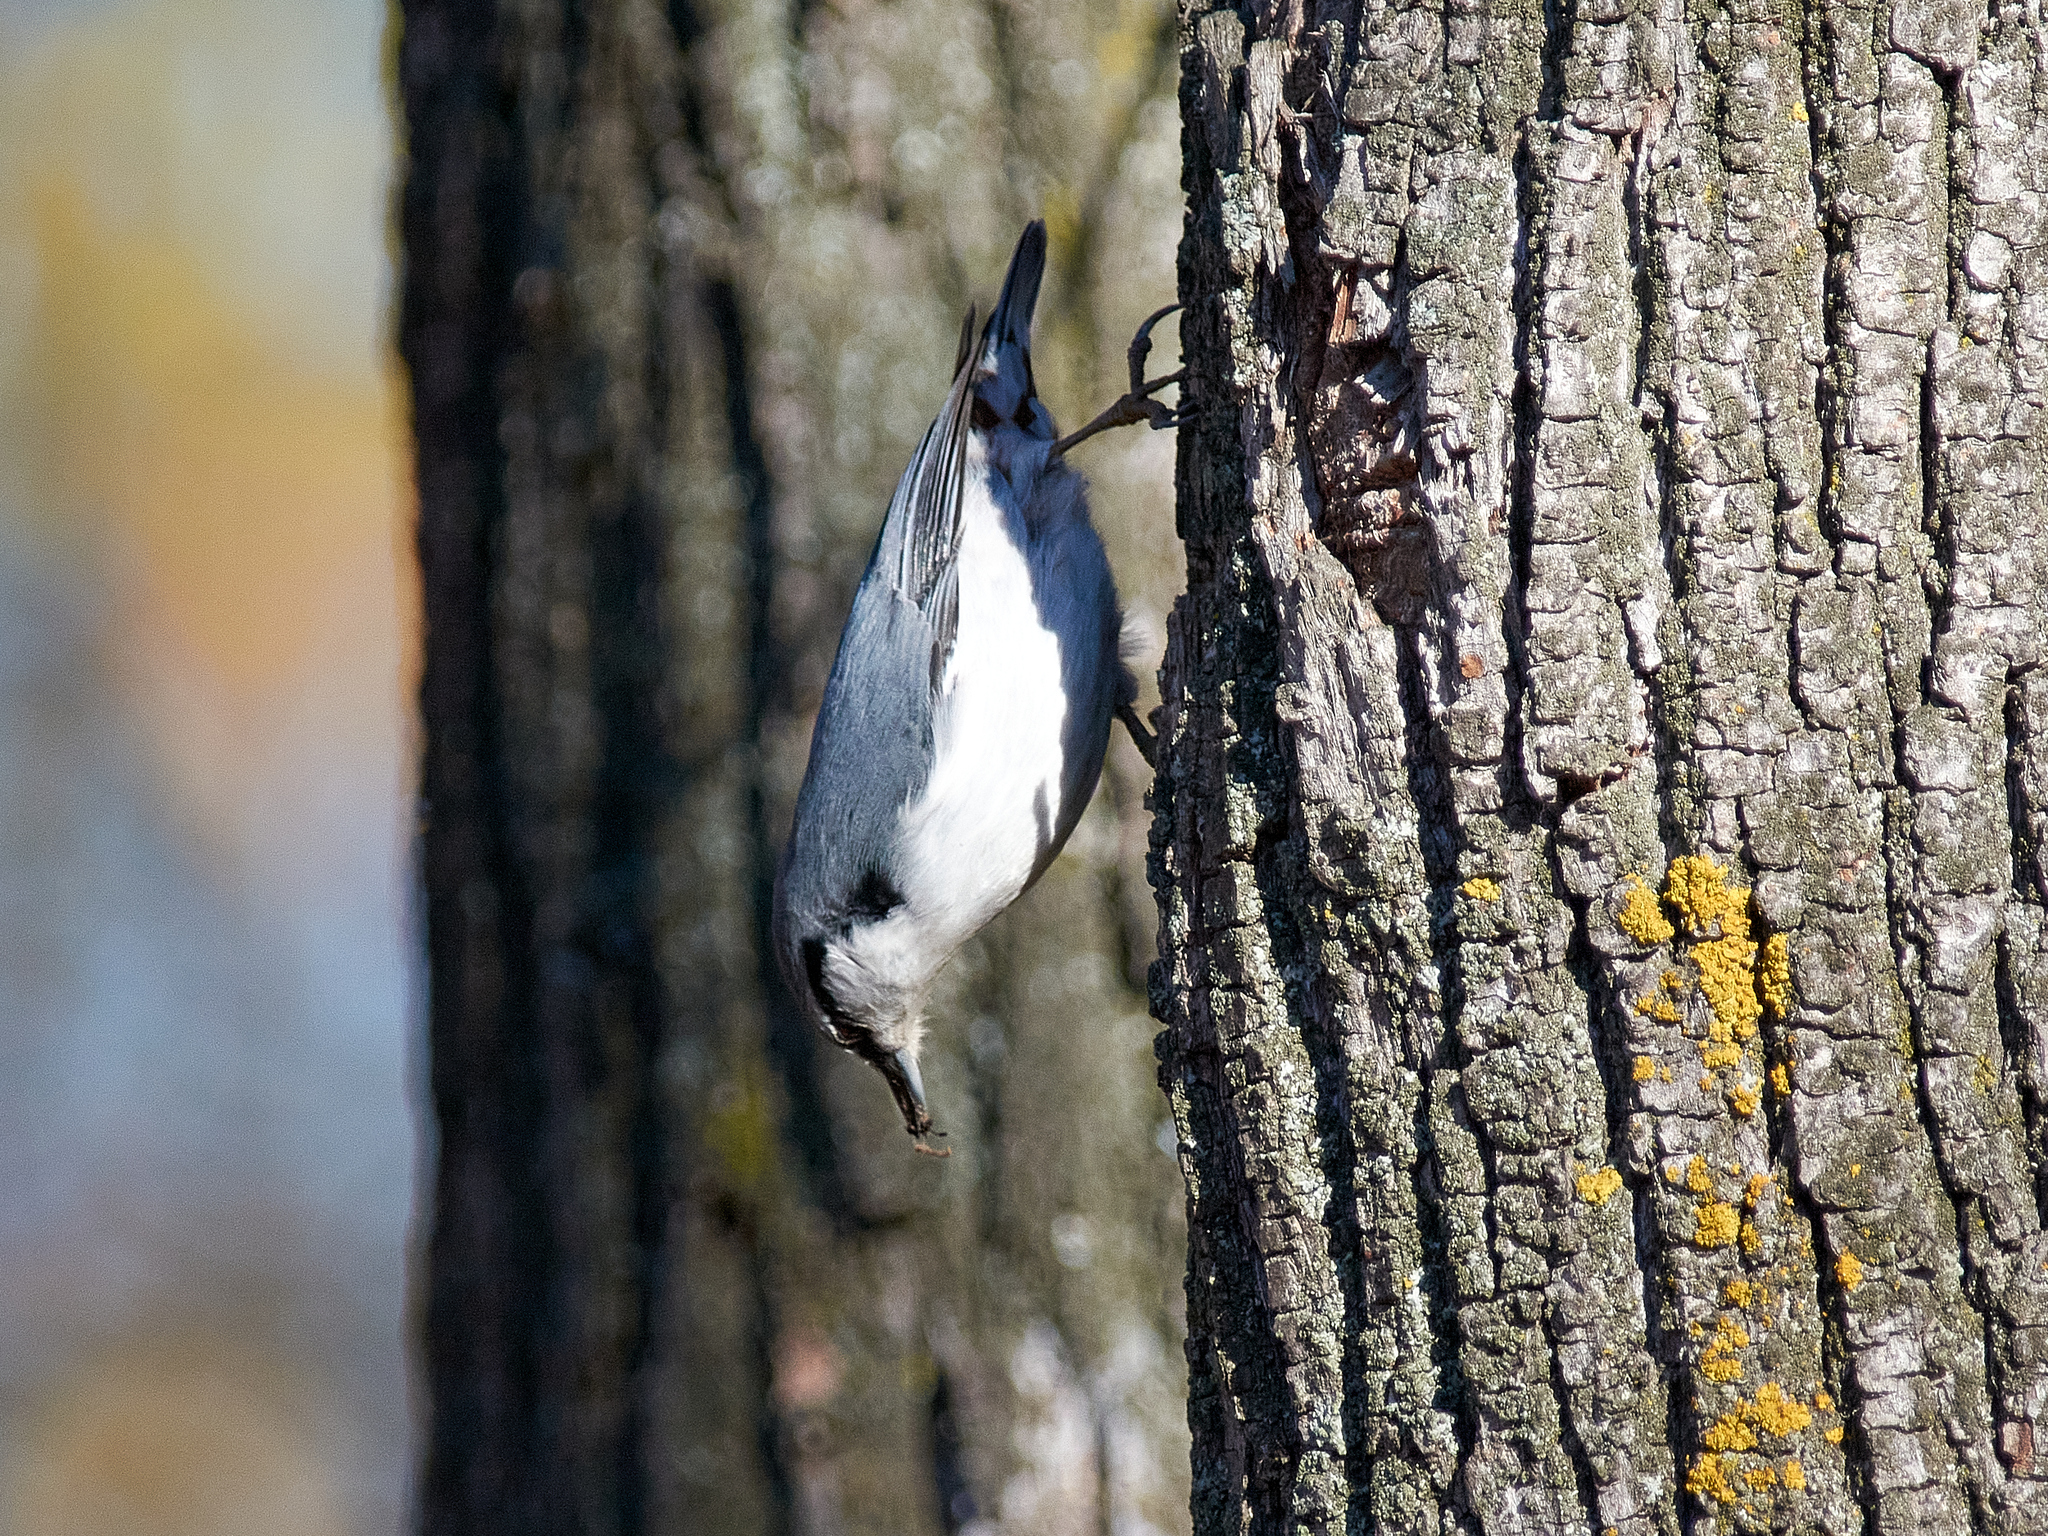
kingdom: Animalia
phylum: Chordata
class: Aves
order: Passeriformes
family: Sittidae
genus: Sitta
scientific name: Sitta europaea
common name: Eurasian nuthatch
